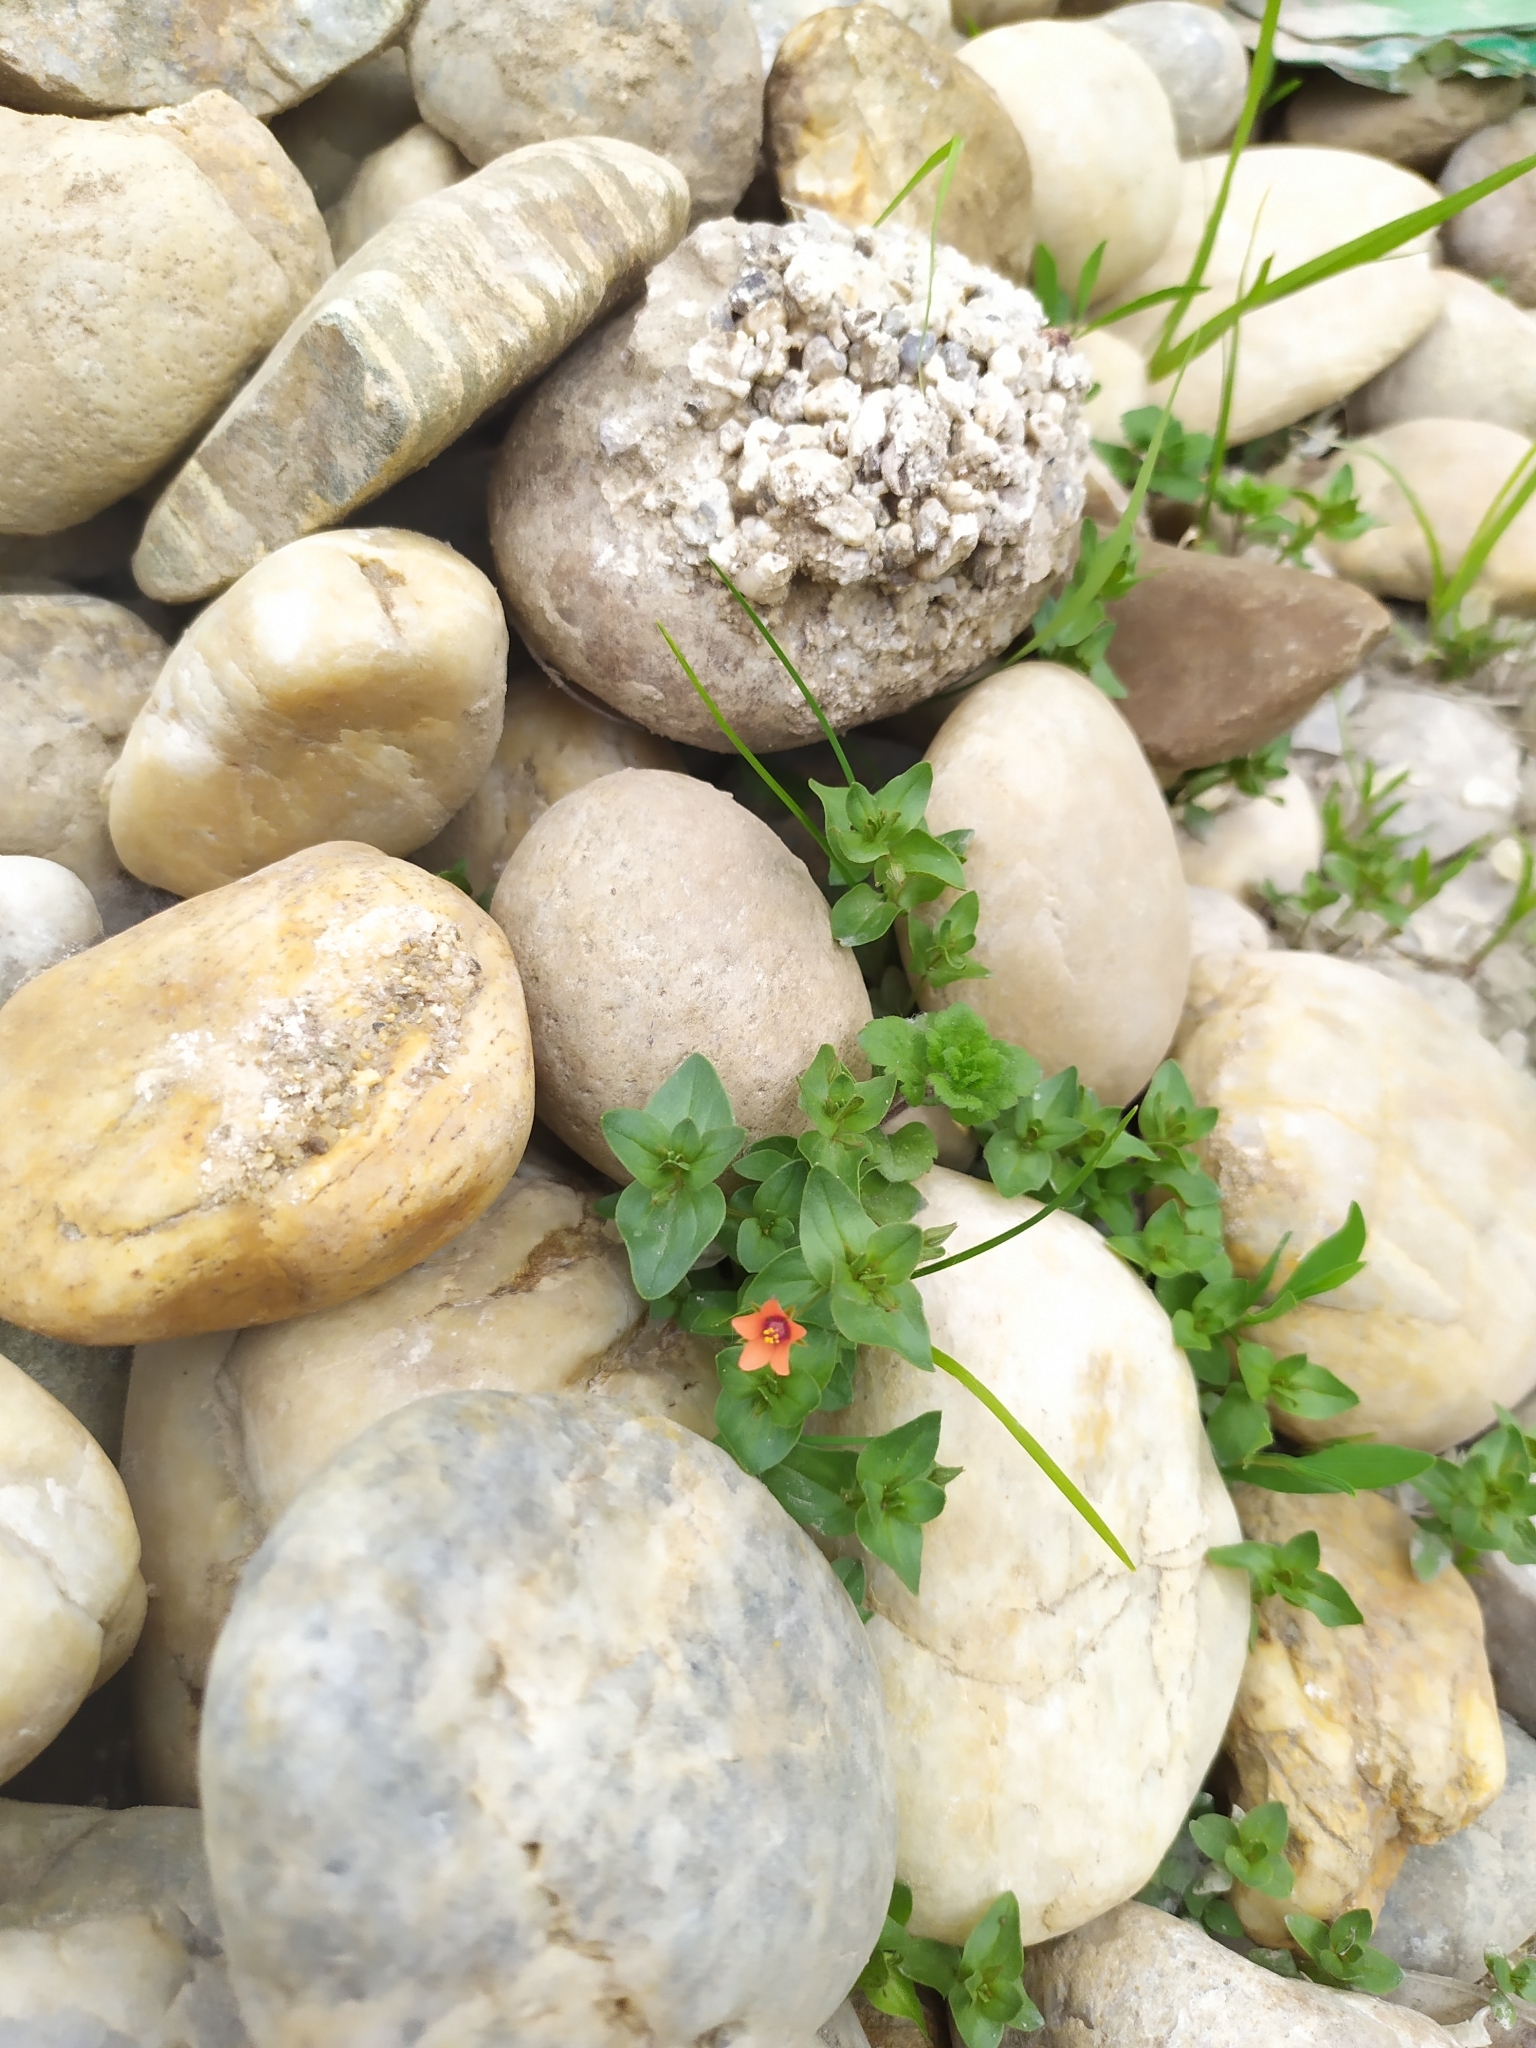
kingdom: Plantae
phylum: Tracheophyta
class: Magnoliopsida
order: Ericales
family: Primulaceae
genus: Lysimachia
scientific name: Lysimachia arvensis
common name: Scarlet pimpernel
